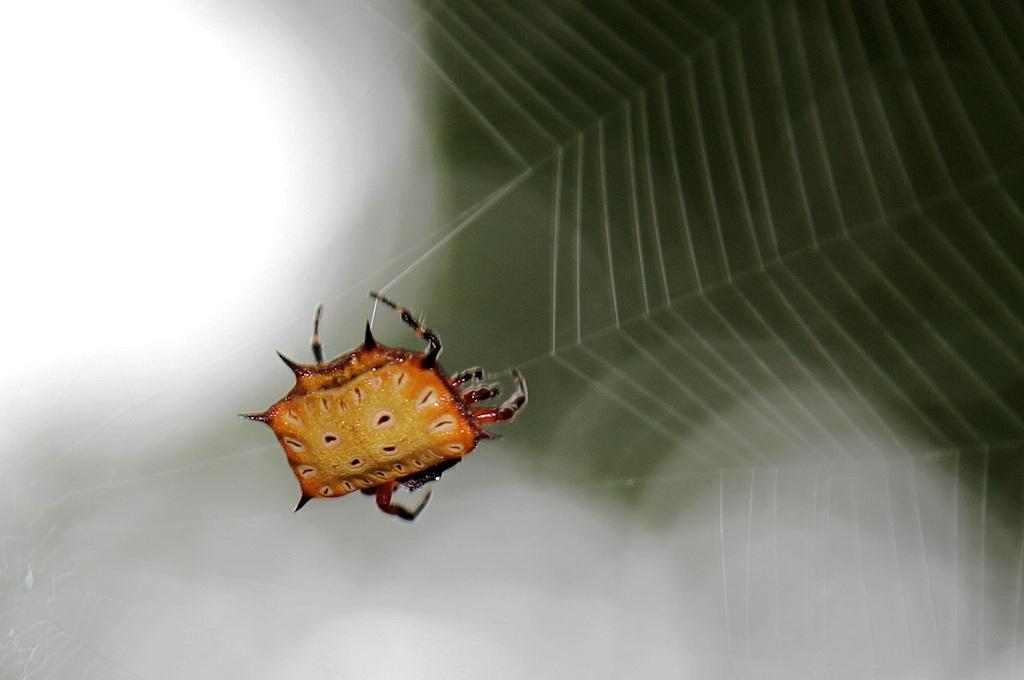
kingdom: Animalia
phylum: Arthropoda
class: Arachnida
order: Araneae
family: Araneidae
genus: Isoxya
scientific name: Isoxya tabulata
